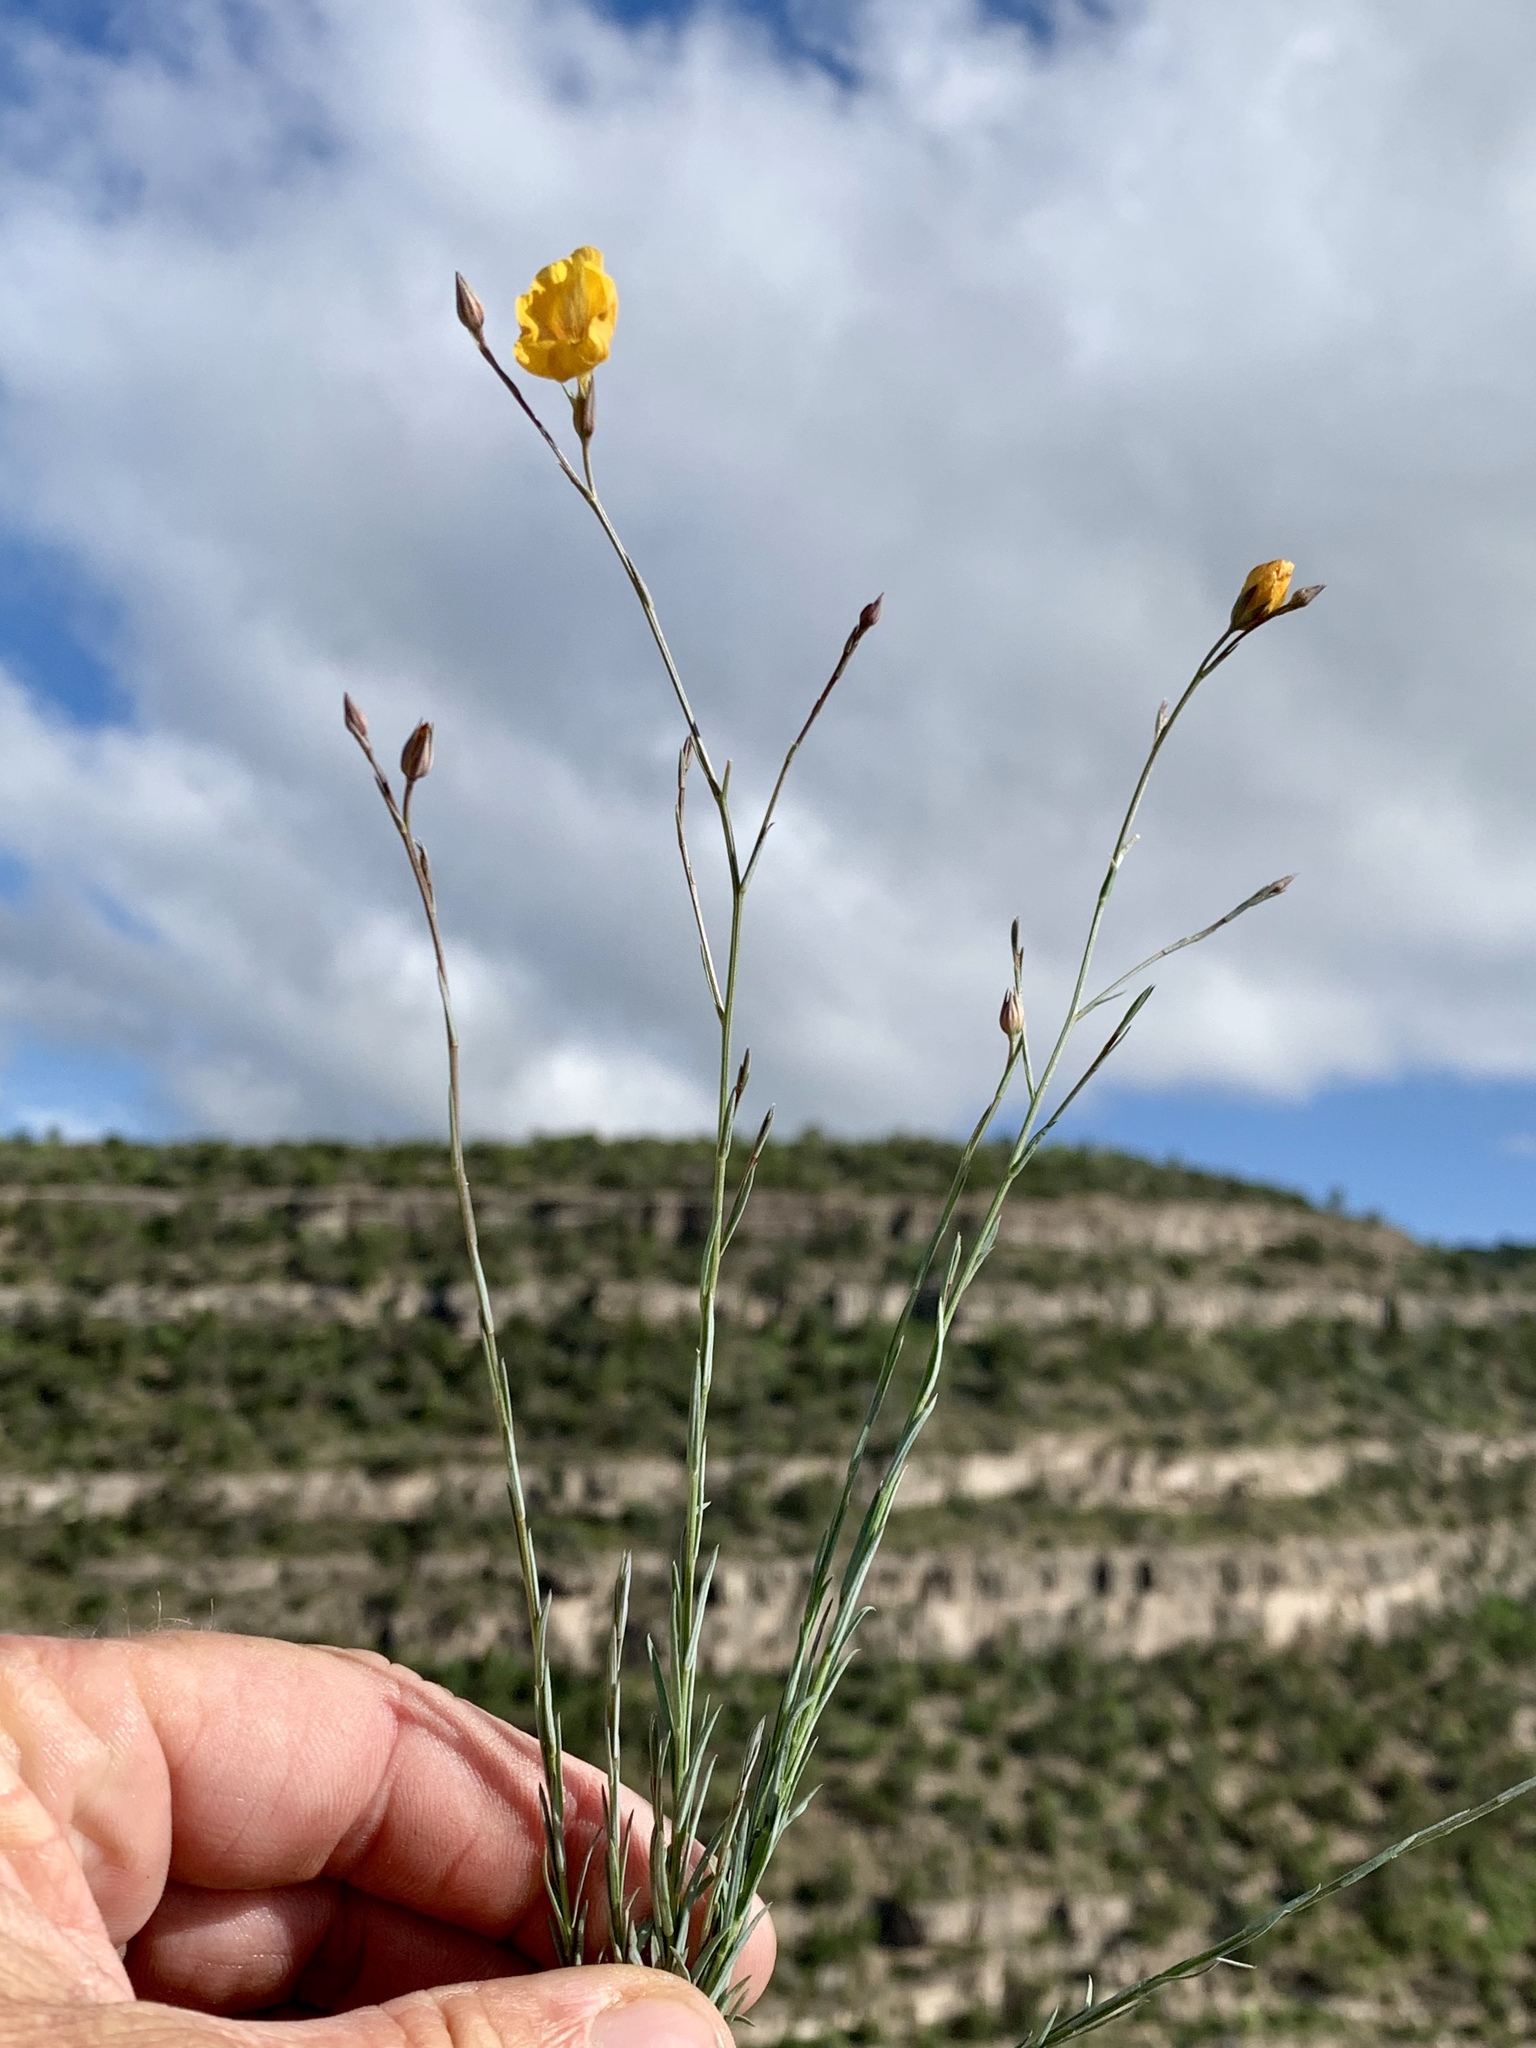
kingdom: Plantae
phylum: Tracheophyta
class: Magnoliopsida
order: Malpighiales
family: Linaceae
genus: Linum
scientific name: Linum berlandieri
